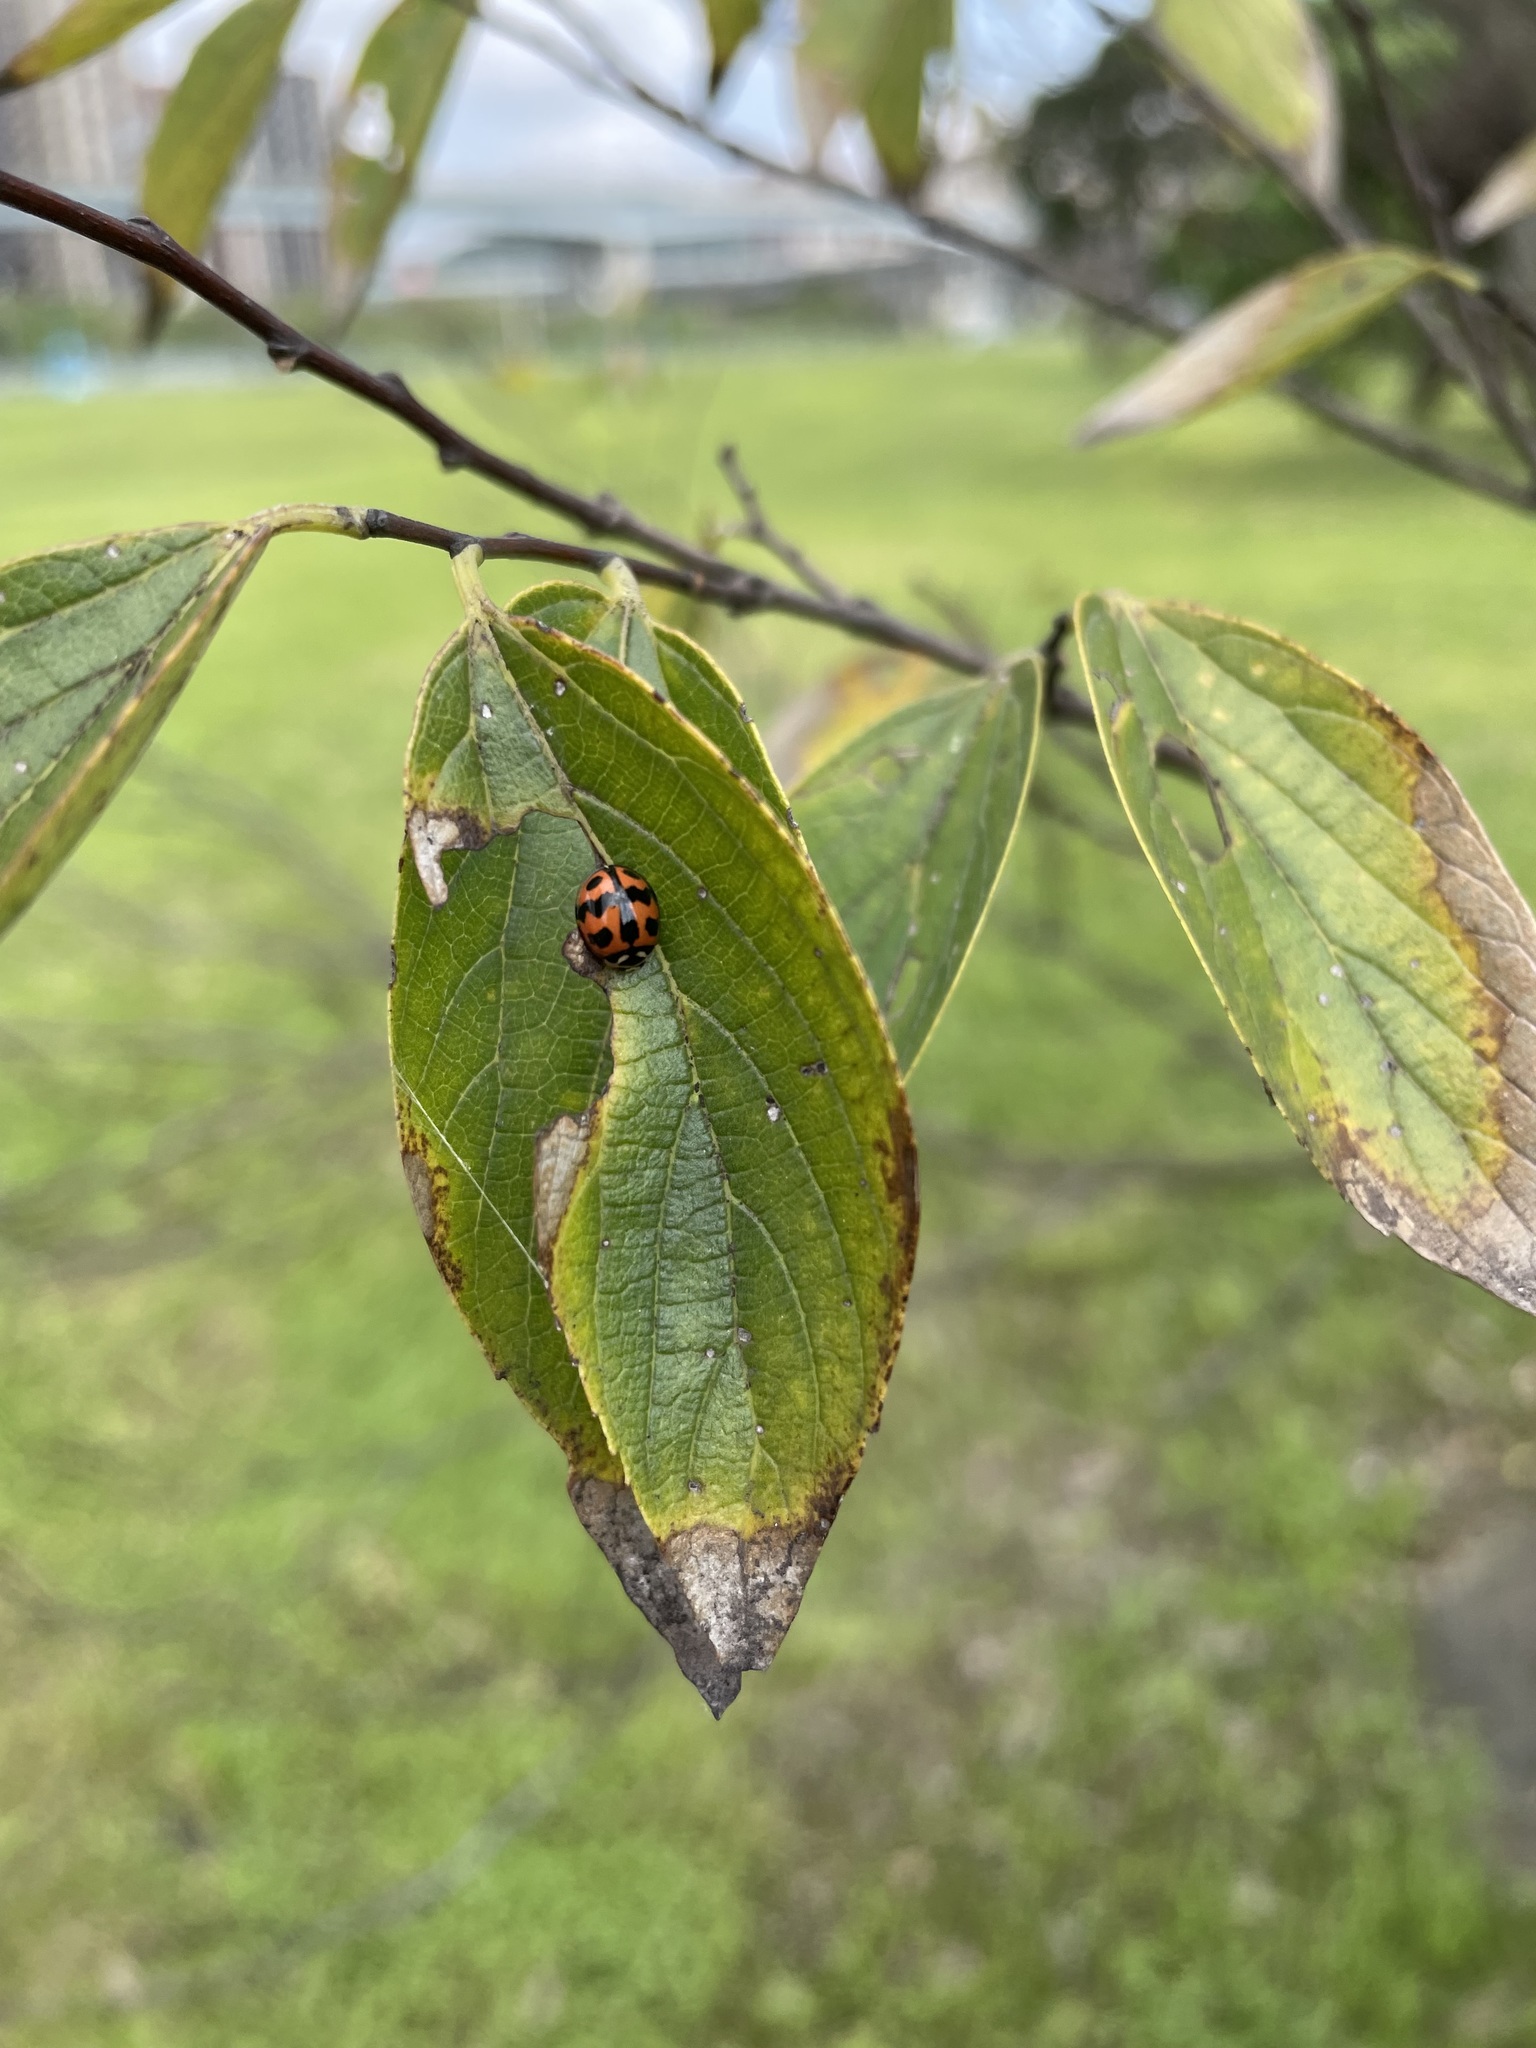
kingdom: Animalia
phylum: Arthropoda
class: Insecta
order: Coleoptera
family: Coccinellidae
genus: Cheilomenes
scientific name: Cheilomenes sexmaculata
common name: Ladybird beetle
